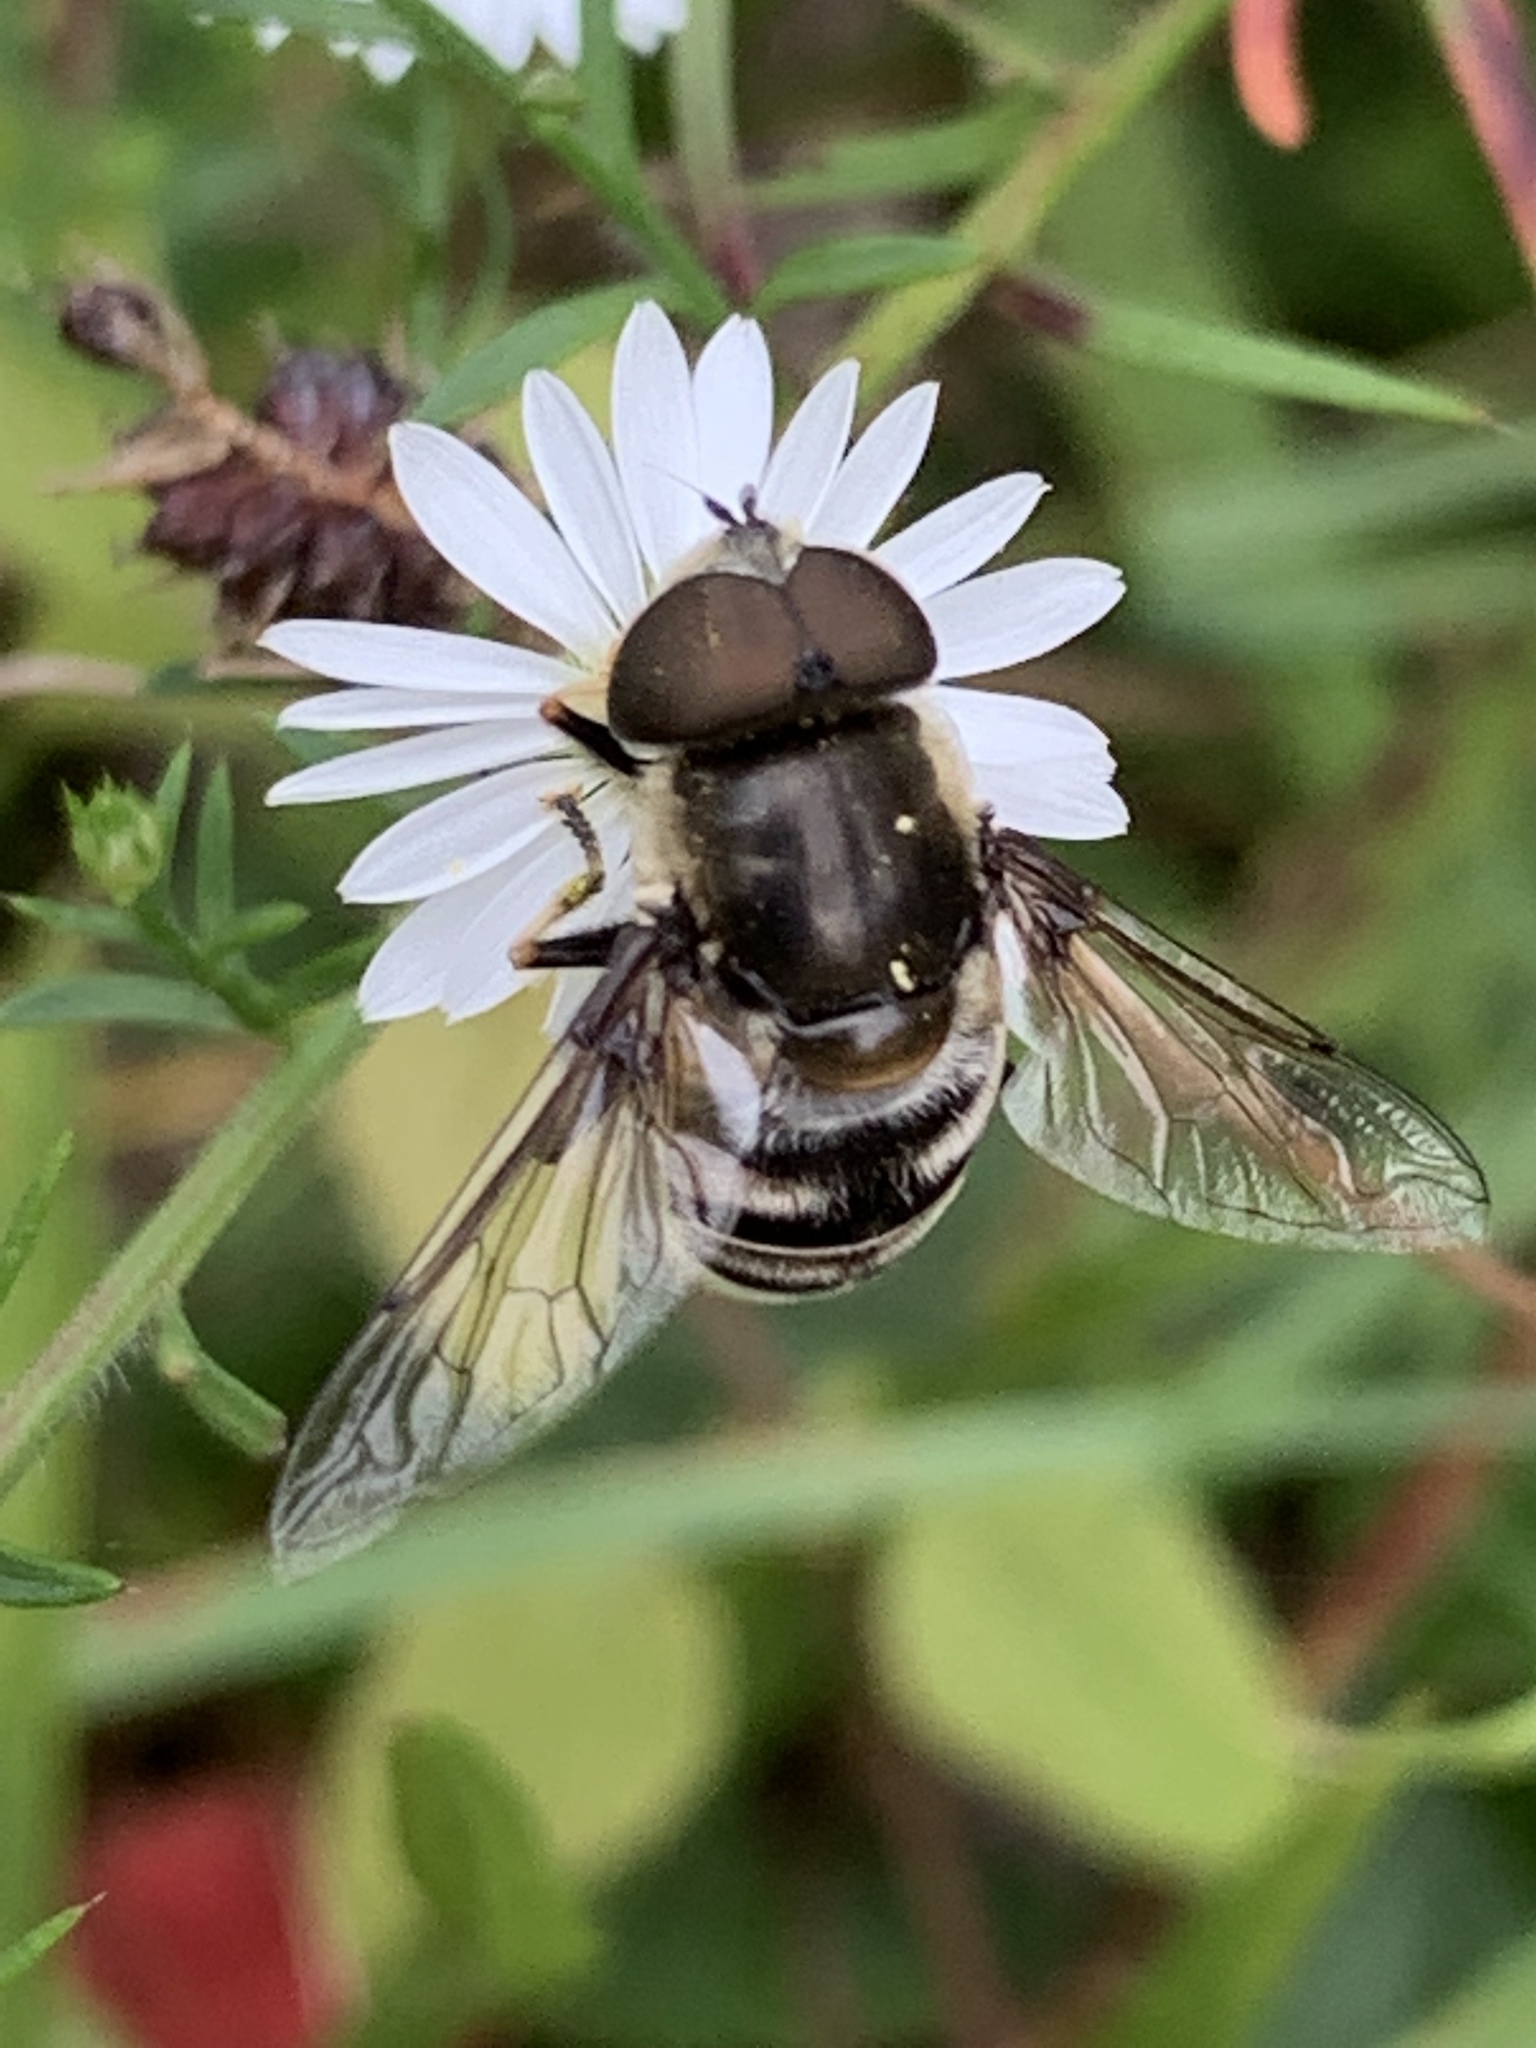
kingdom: Animalia
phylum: Arthropoda
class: Insecta
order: Diptera
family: Syrphidae
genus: Eristalis
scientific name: Eristalis dimidiata
